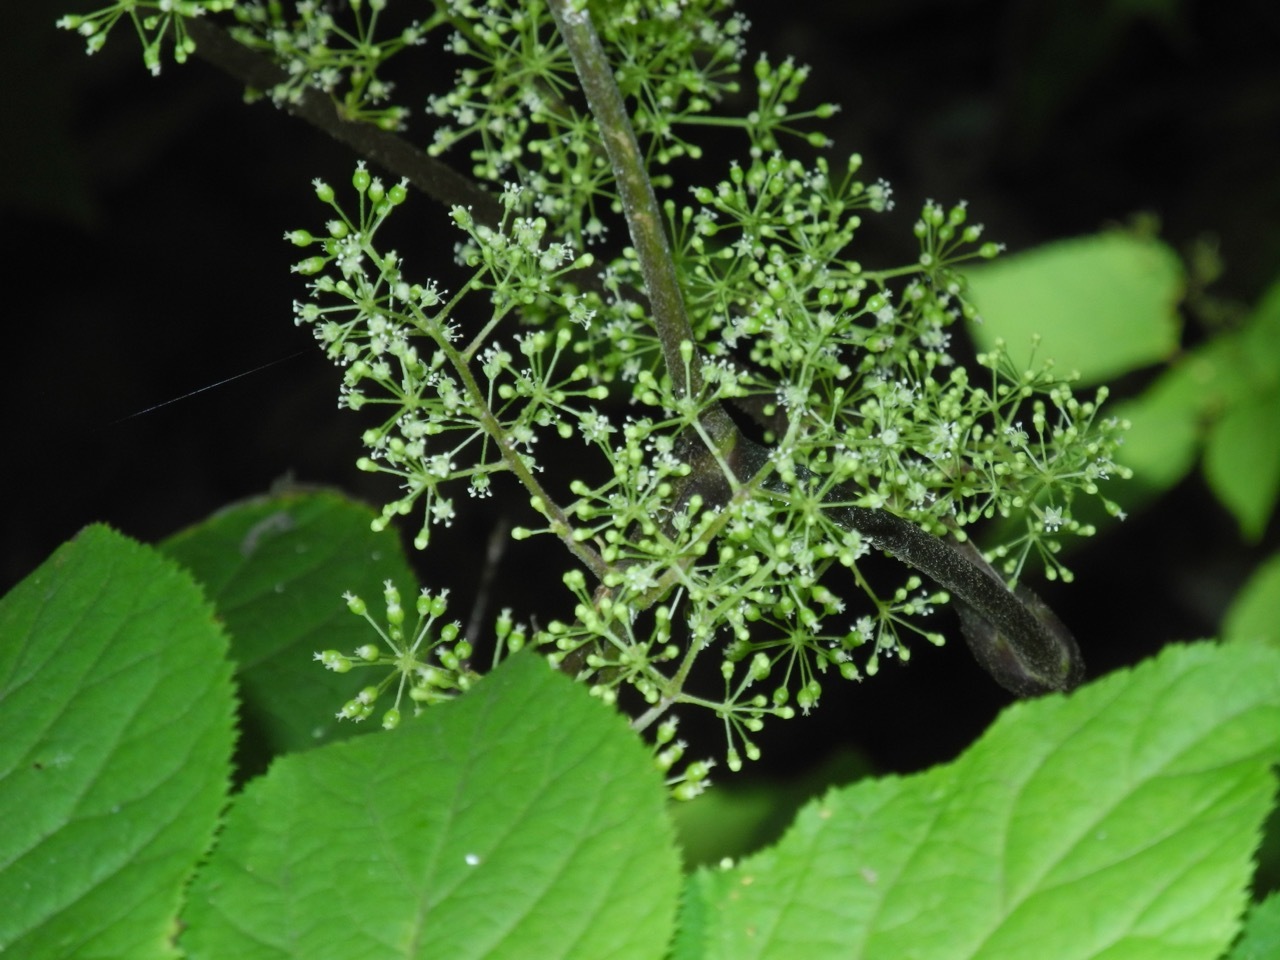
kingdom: Plantae
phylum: Tracheophyta
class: Magnoliopsida
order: Apiales
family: Araliaceae
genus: Aralia
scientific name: Aralia racemosa
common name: American-spikenard
